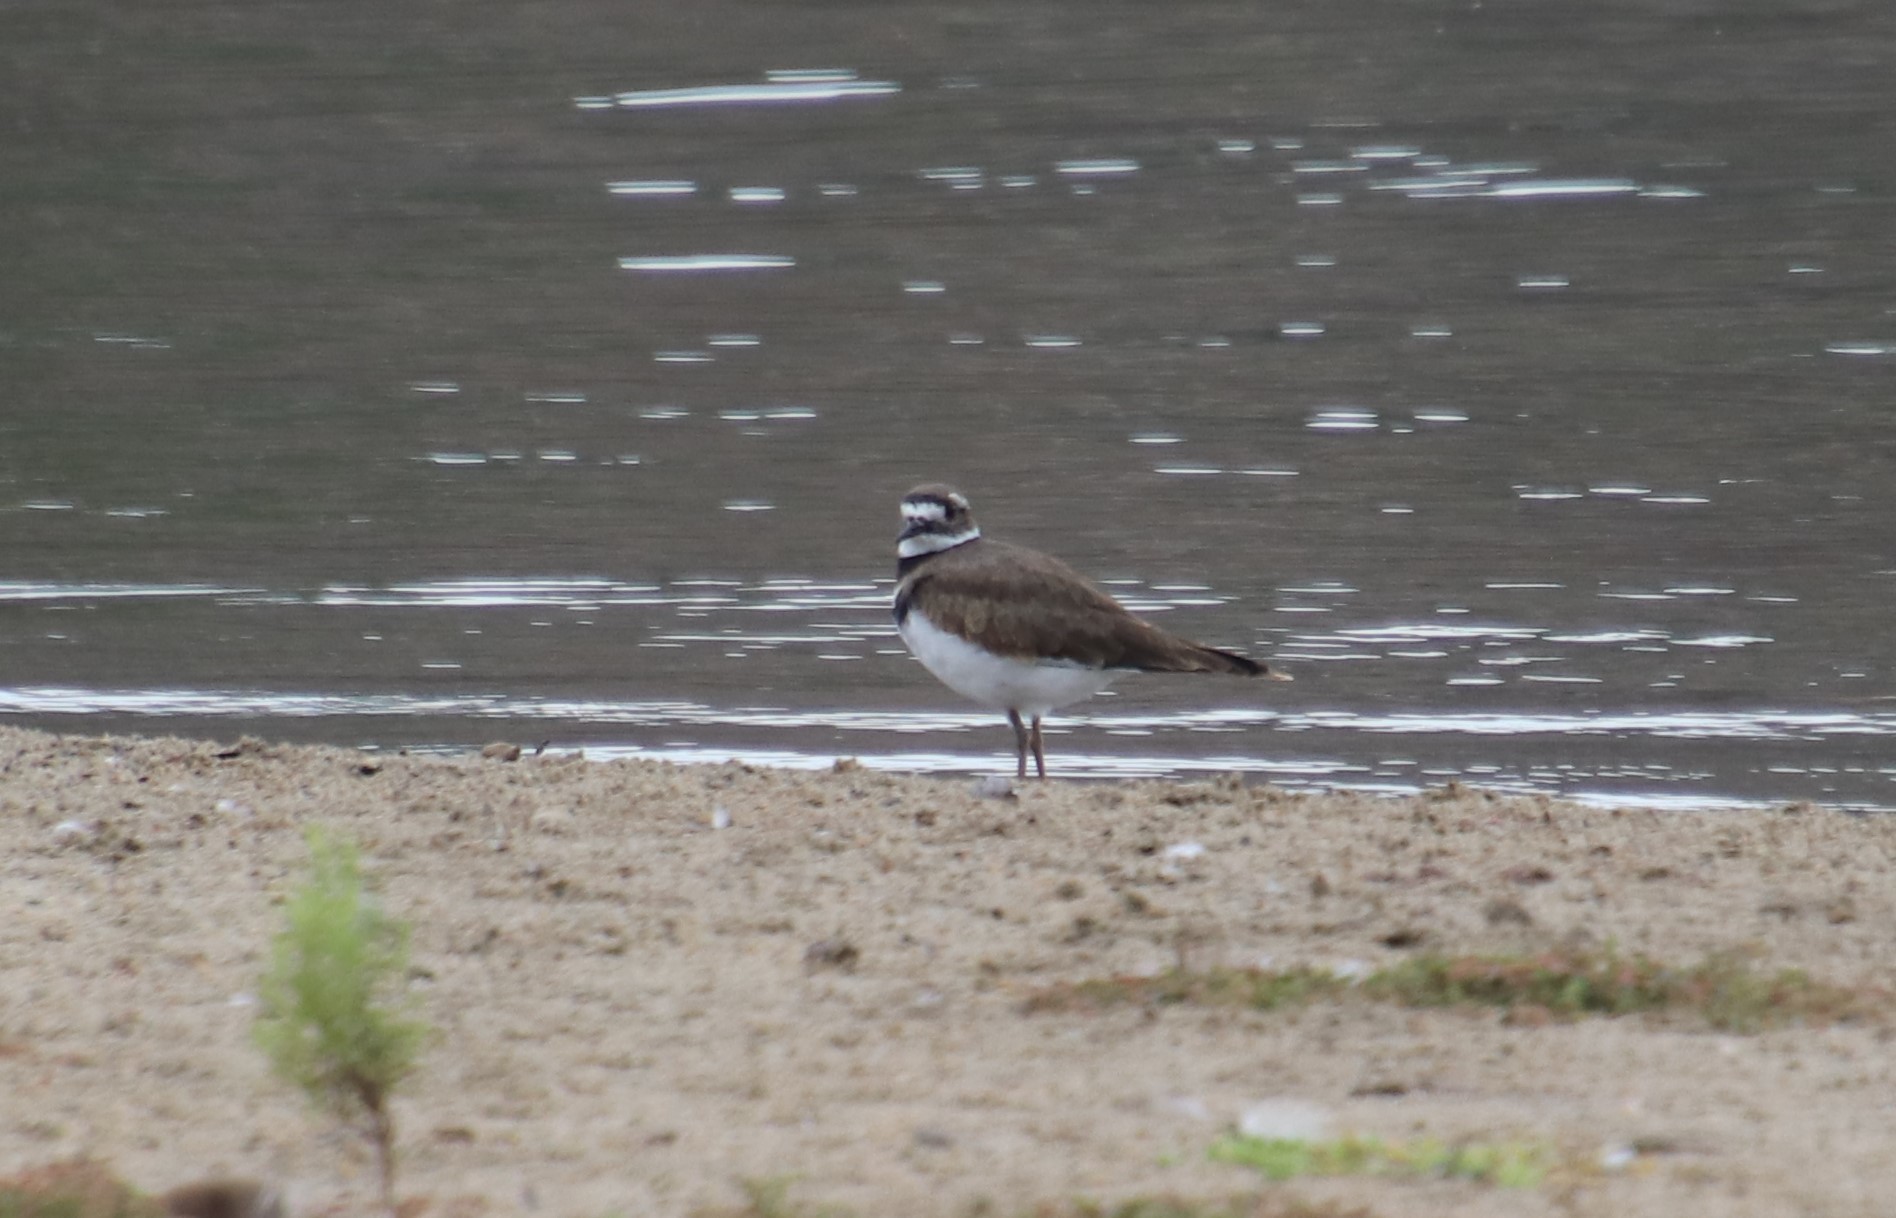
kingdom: Animalia
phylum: Chordata
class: Aves
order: Charadriiformes
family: Charadriidae
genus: Charadrius
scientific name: Charadrius vociferus
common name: Killdeer
